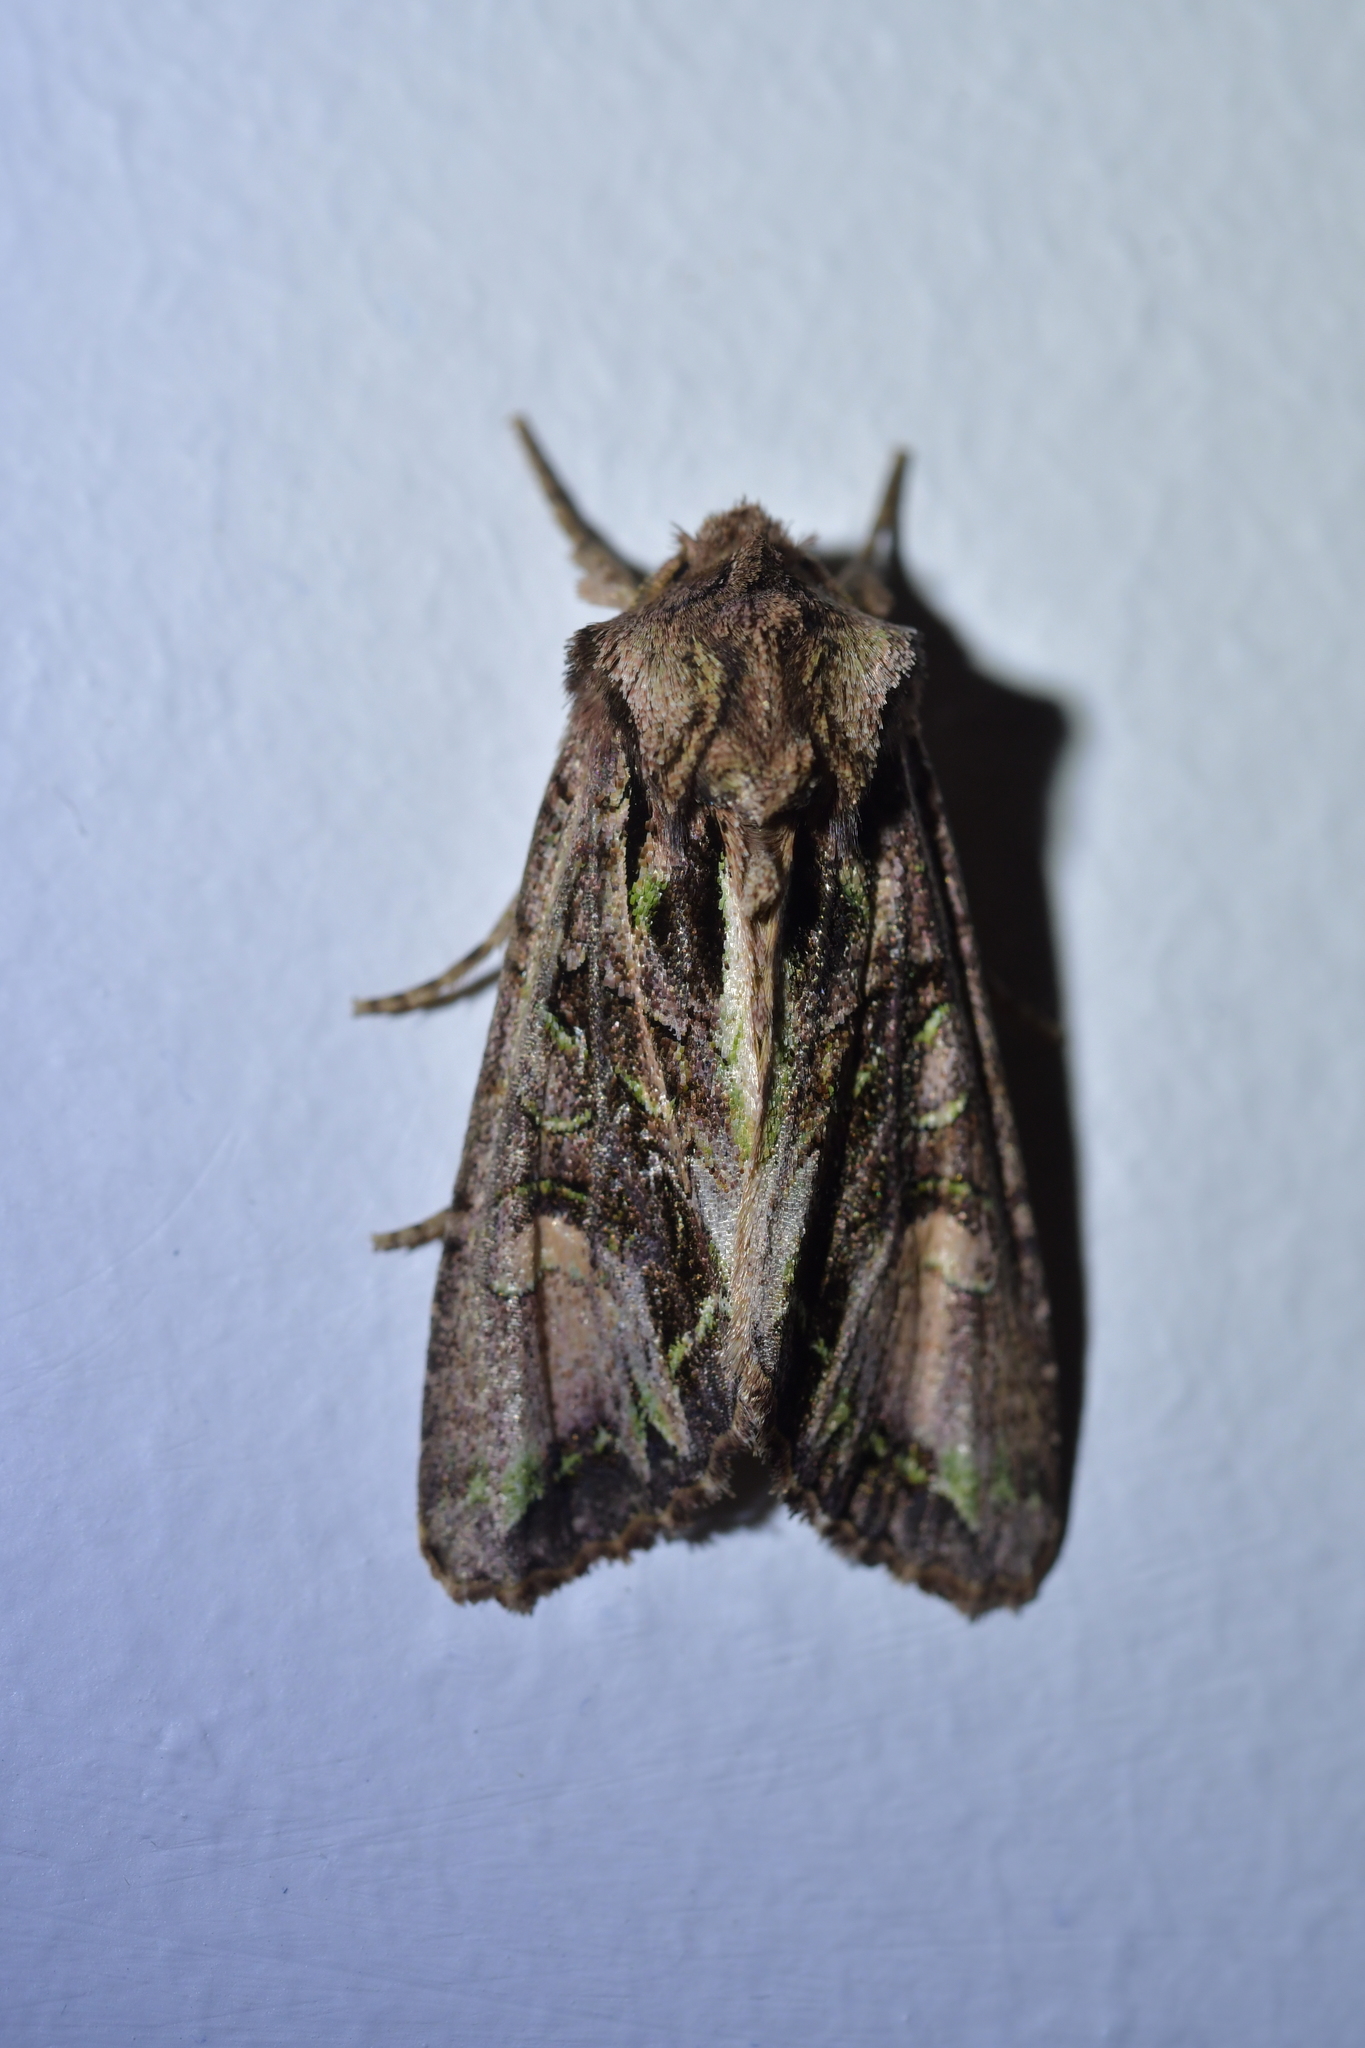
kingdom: Animalia
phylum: Arthropoda
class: Insecta
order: Lepidoptera
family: Noctuidae
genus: Ichneutica
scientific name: Ichneutica insignis
